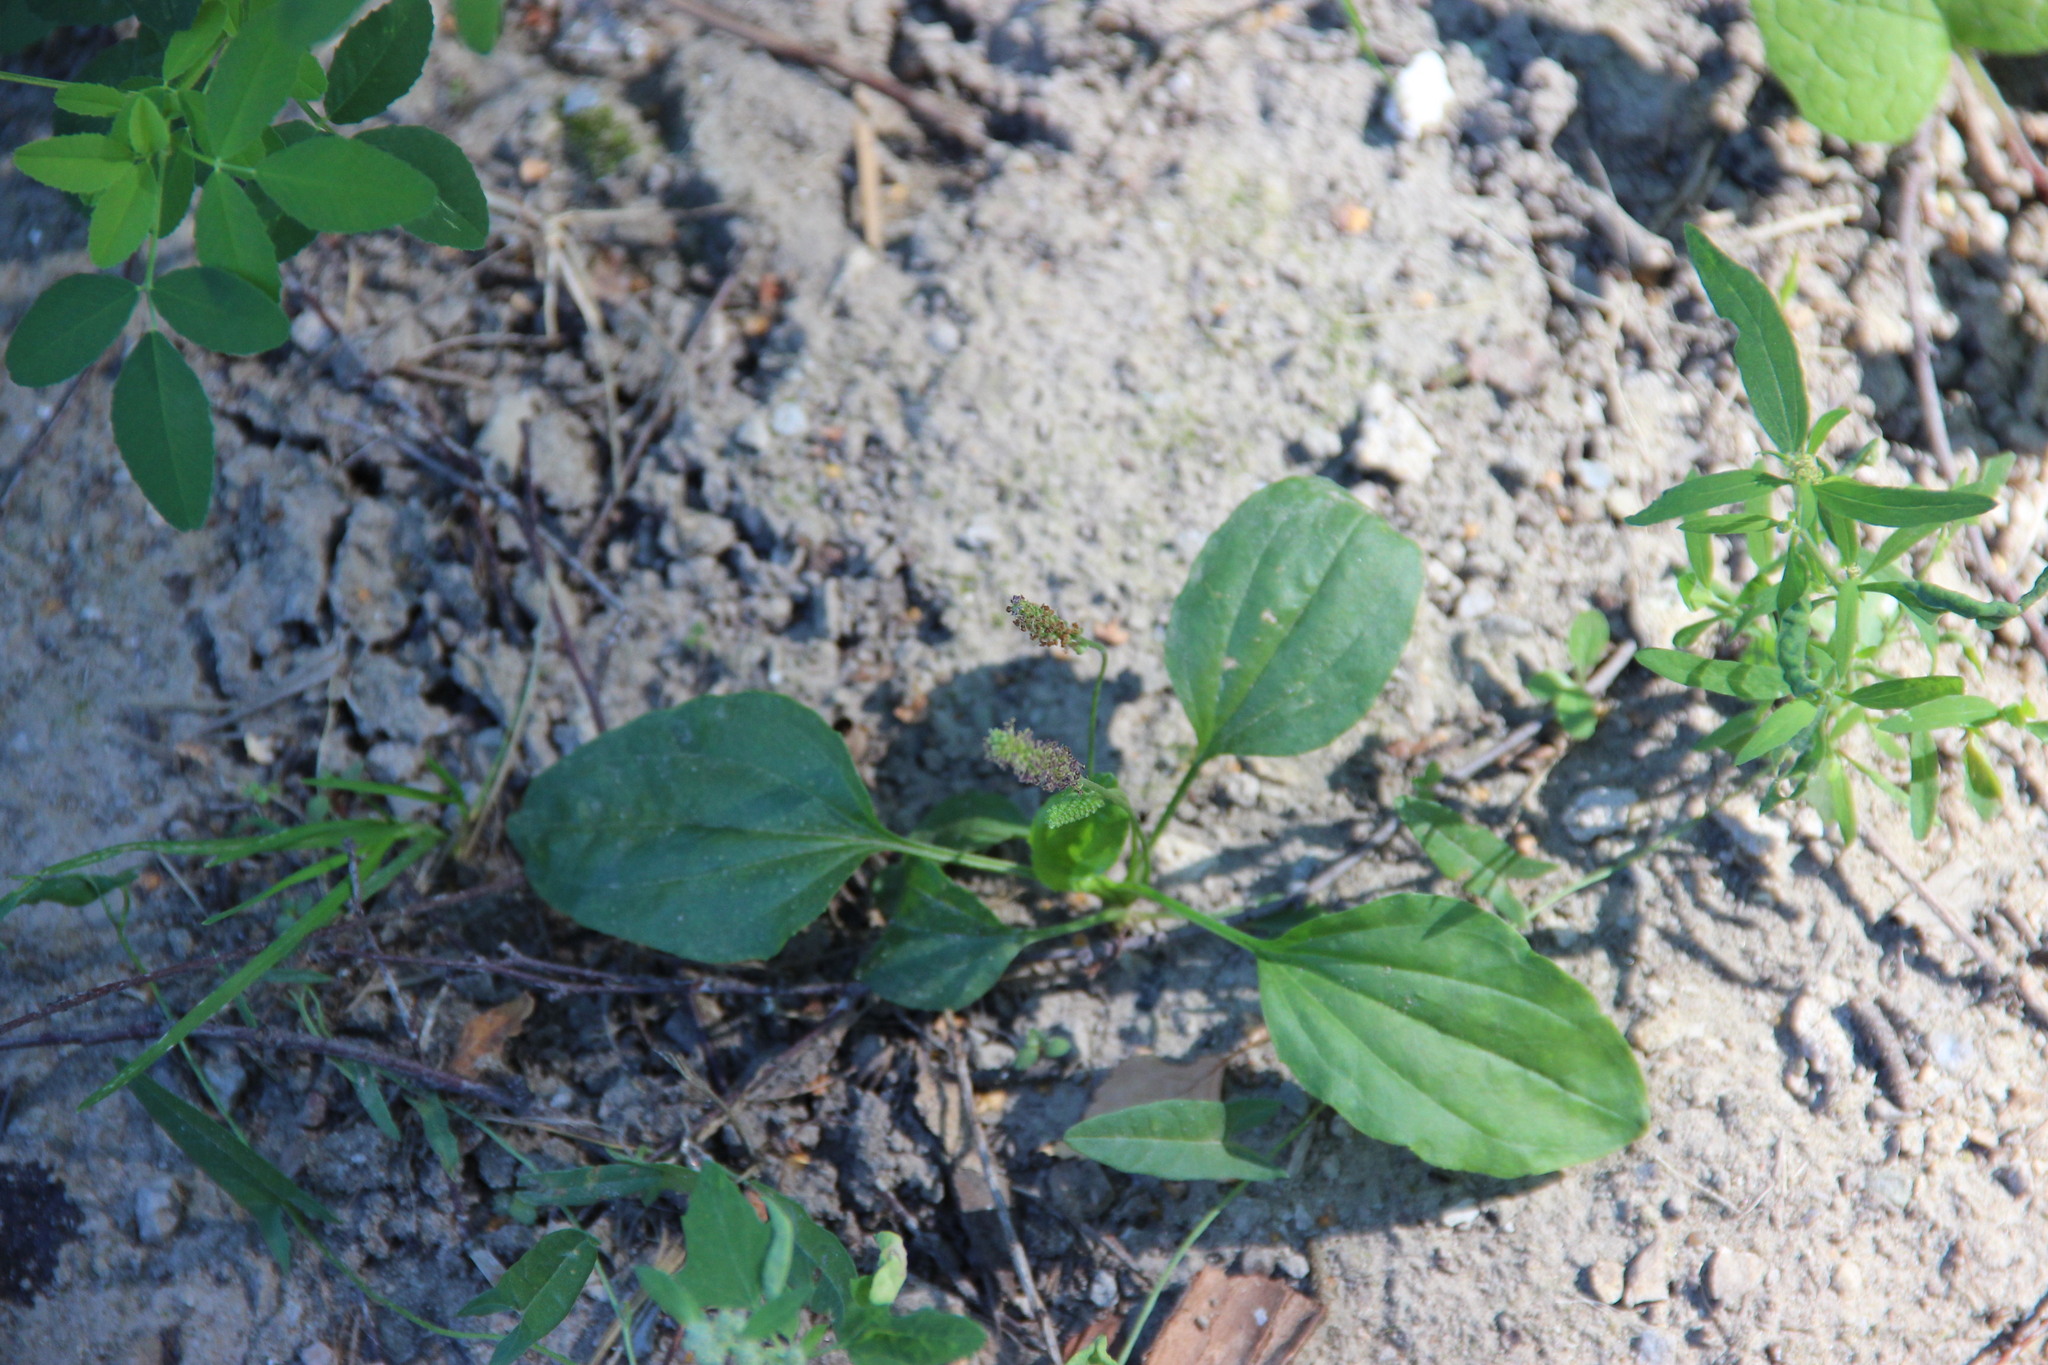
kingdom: Plantae
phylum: Tracheophyta
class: Magnoliopsida
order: Lamiales
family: Plantaginaceae
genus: Plantago
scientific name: Plantago major
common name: Common plantain
